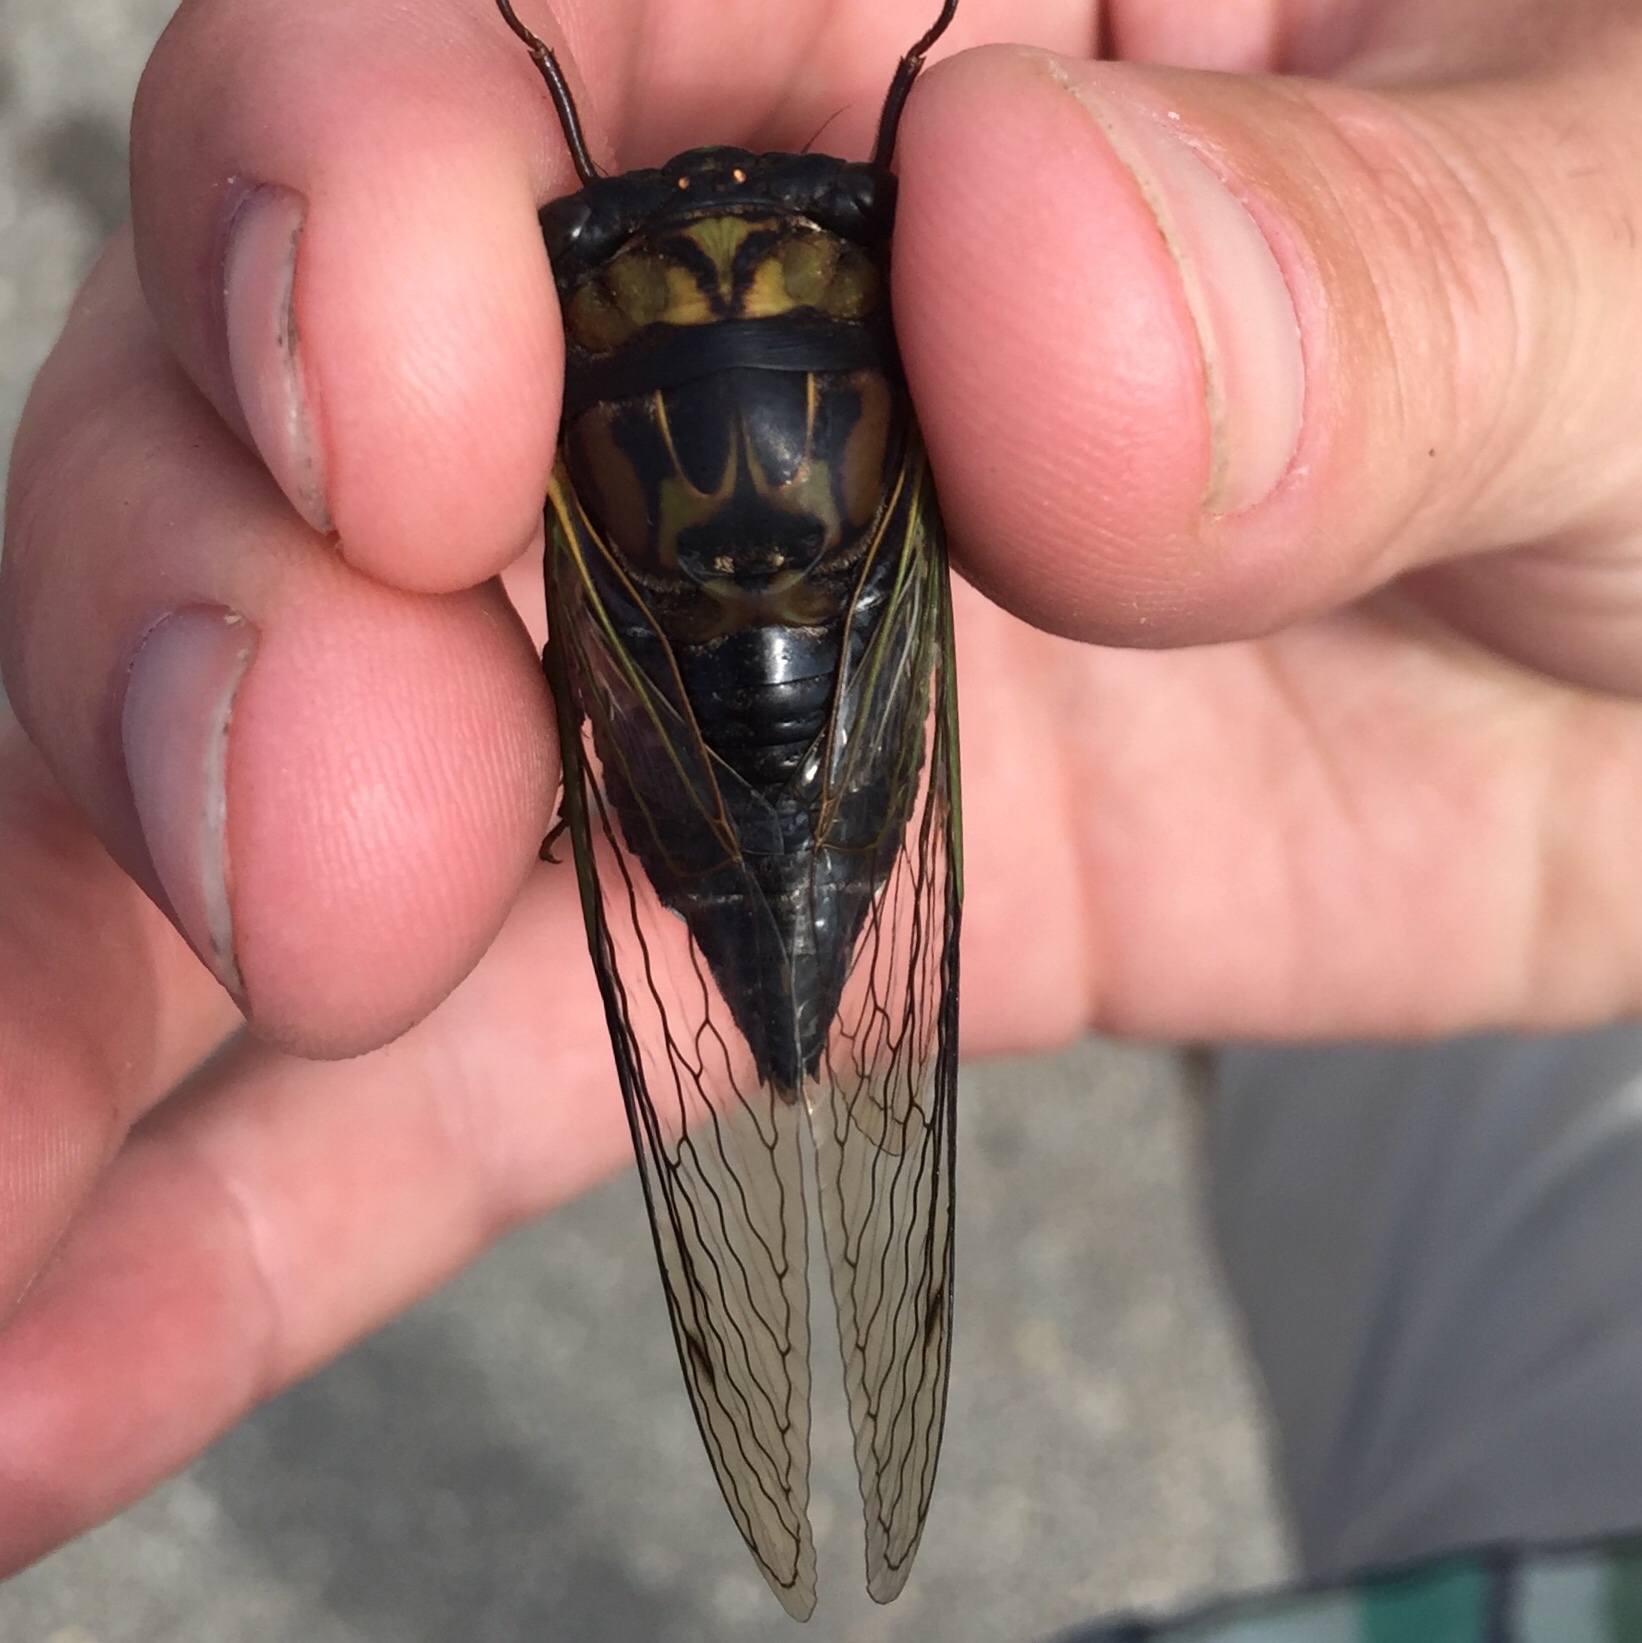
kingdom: Animalia
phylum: Arthropoda
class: Insecta
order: Hemiptera
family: Cicadidae
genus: Neotibicen
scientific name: Neotibicen lyricen
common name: Lyric cicada
